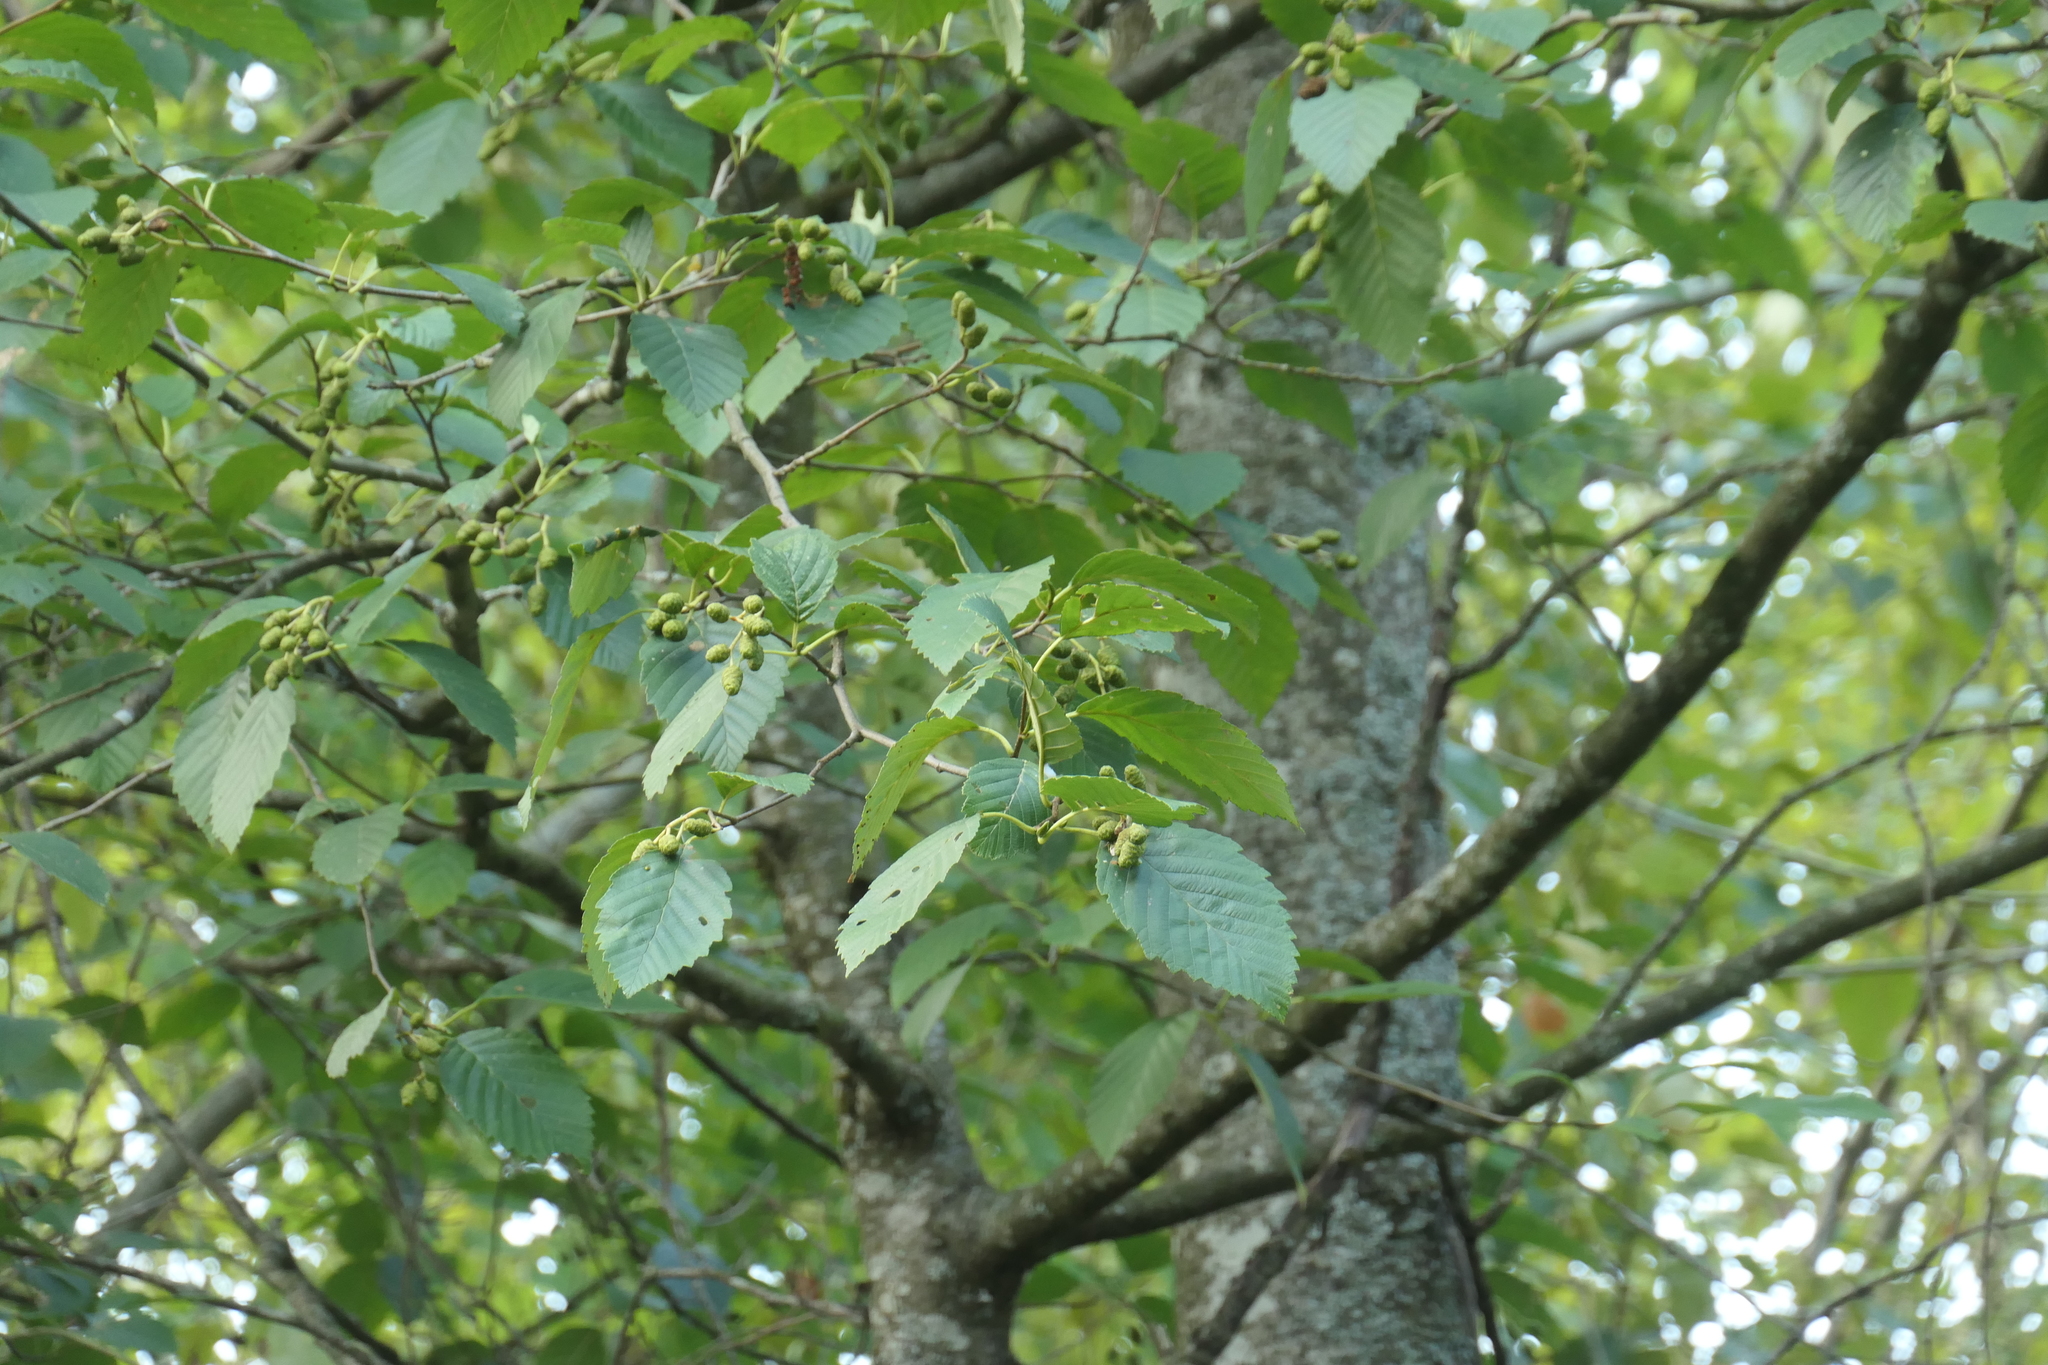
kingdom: Plantae
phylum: Tracheophyta
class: Magnoliopsida
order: Fagales
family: Betulaceae
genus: Alnus
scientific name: Alnus rubra
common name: Red alder
